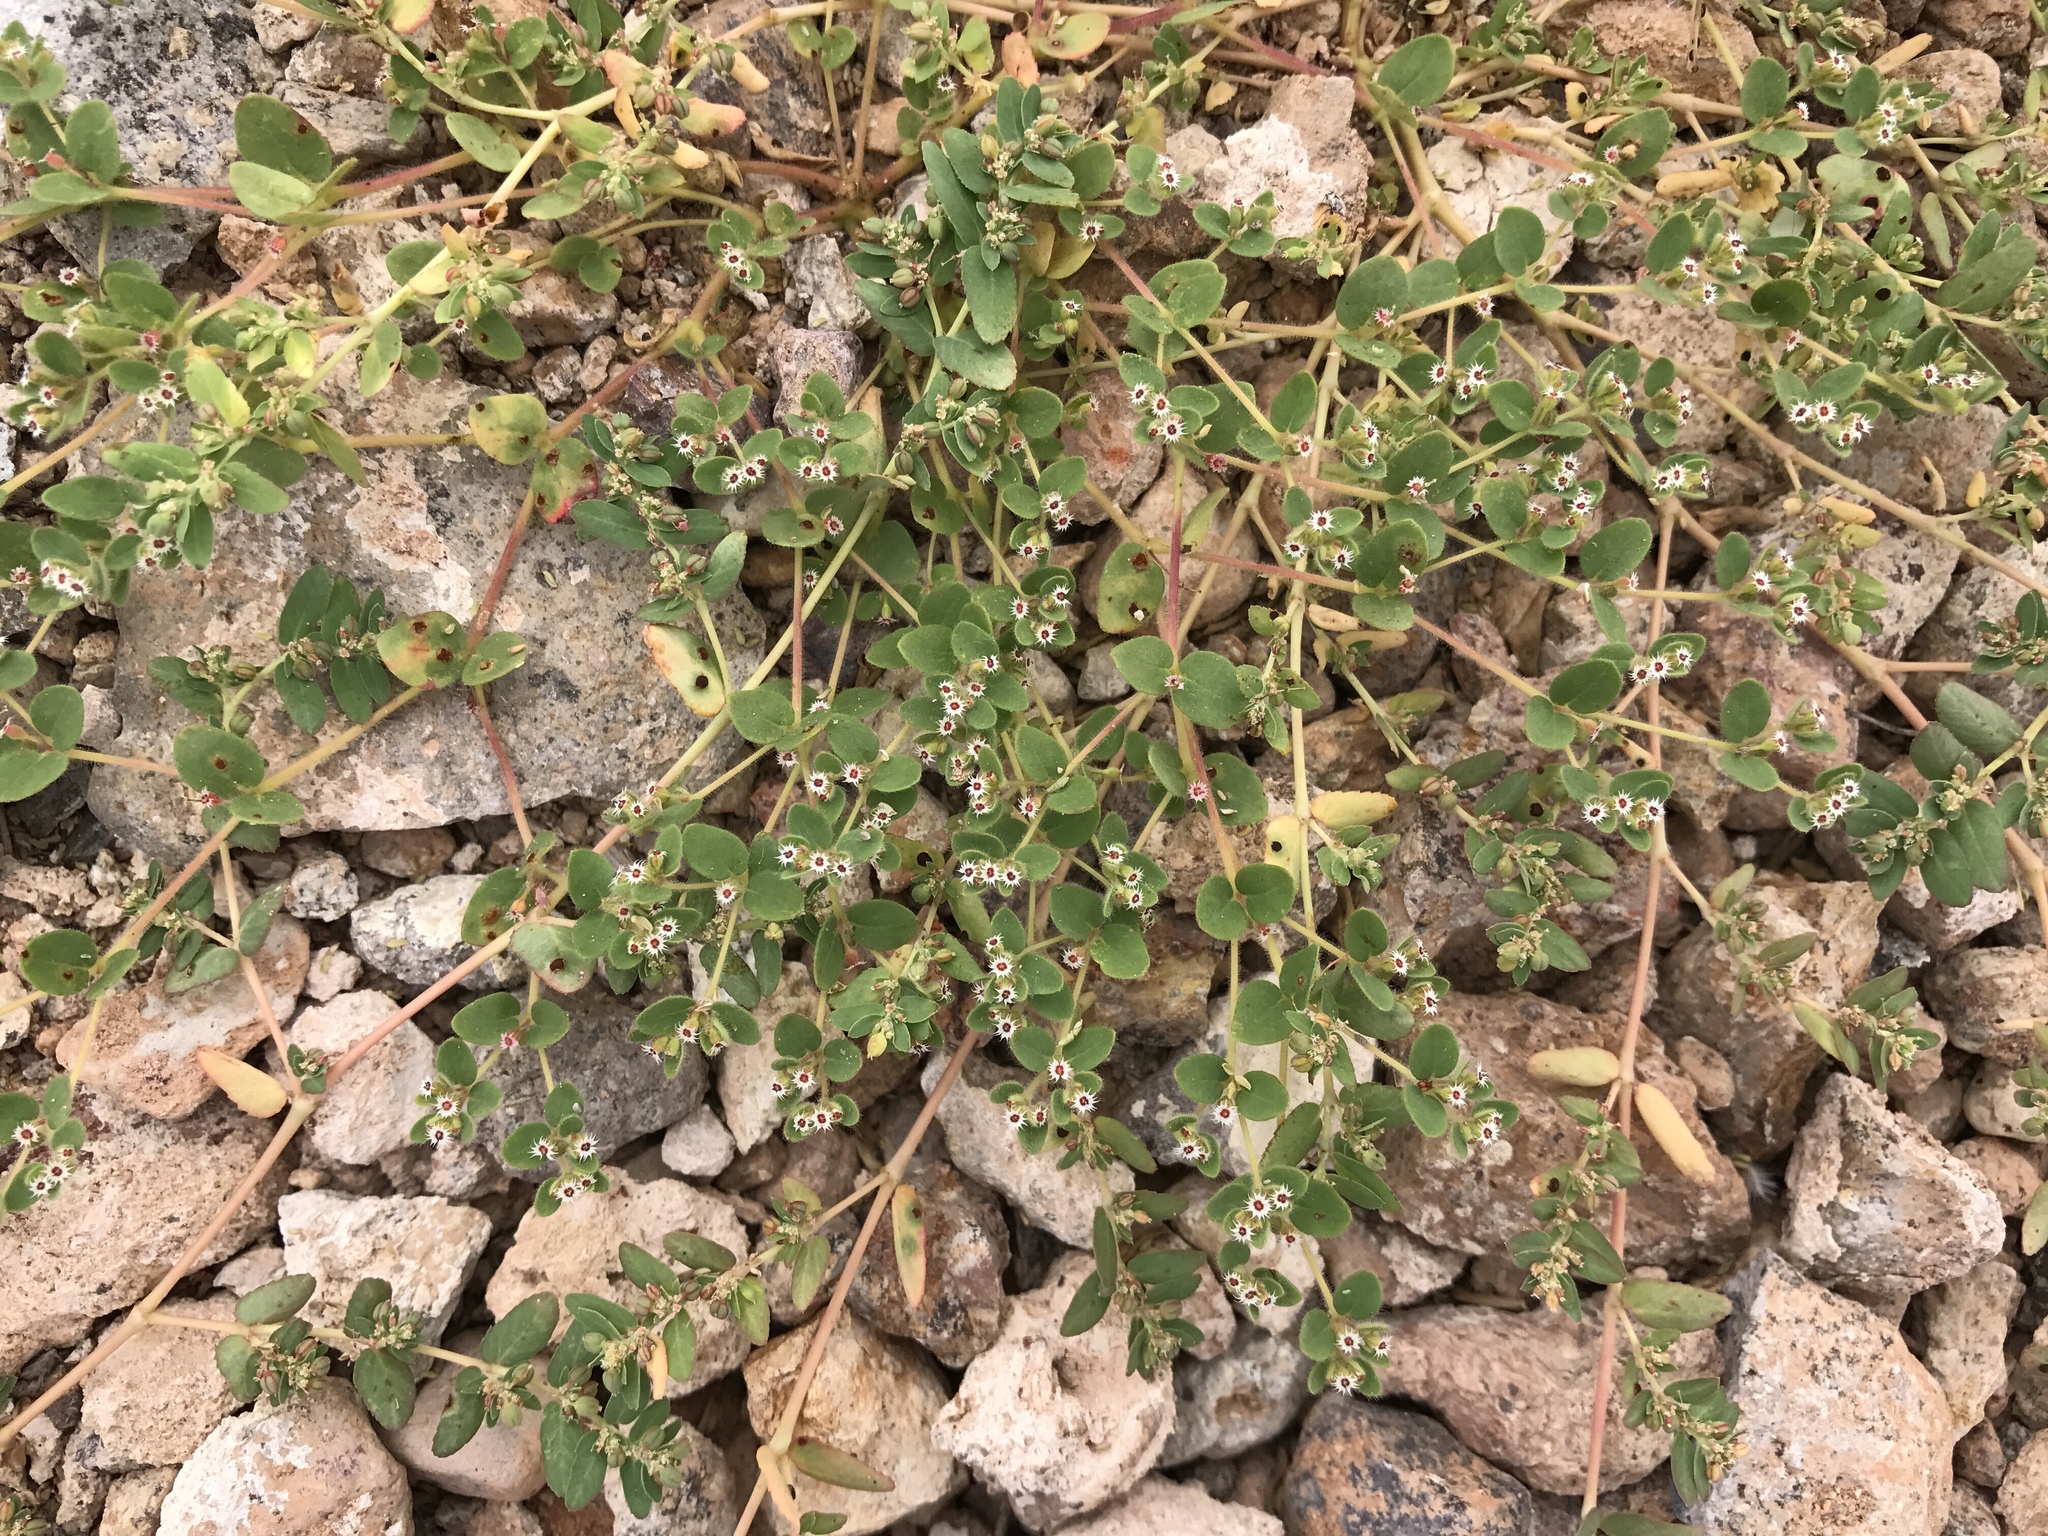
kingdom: Plantae
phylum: Tracheophyta
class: Magnoliopsida
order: Malpighiales
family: Euphorbiaceae
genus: Euphorbia
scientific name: Euphorbia setiloba
